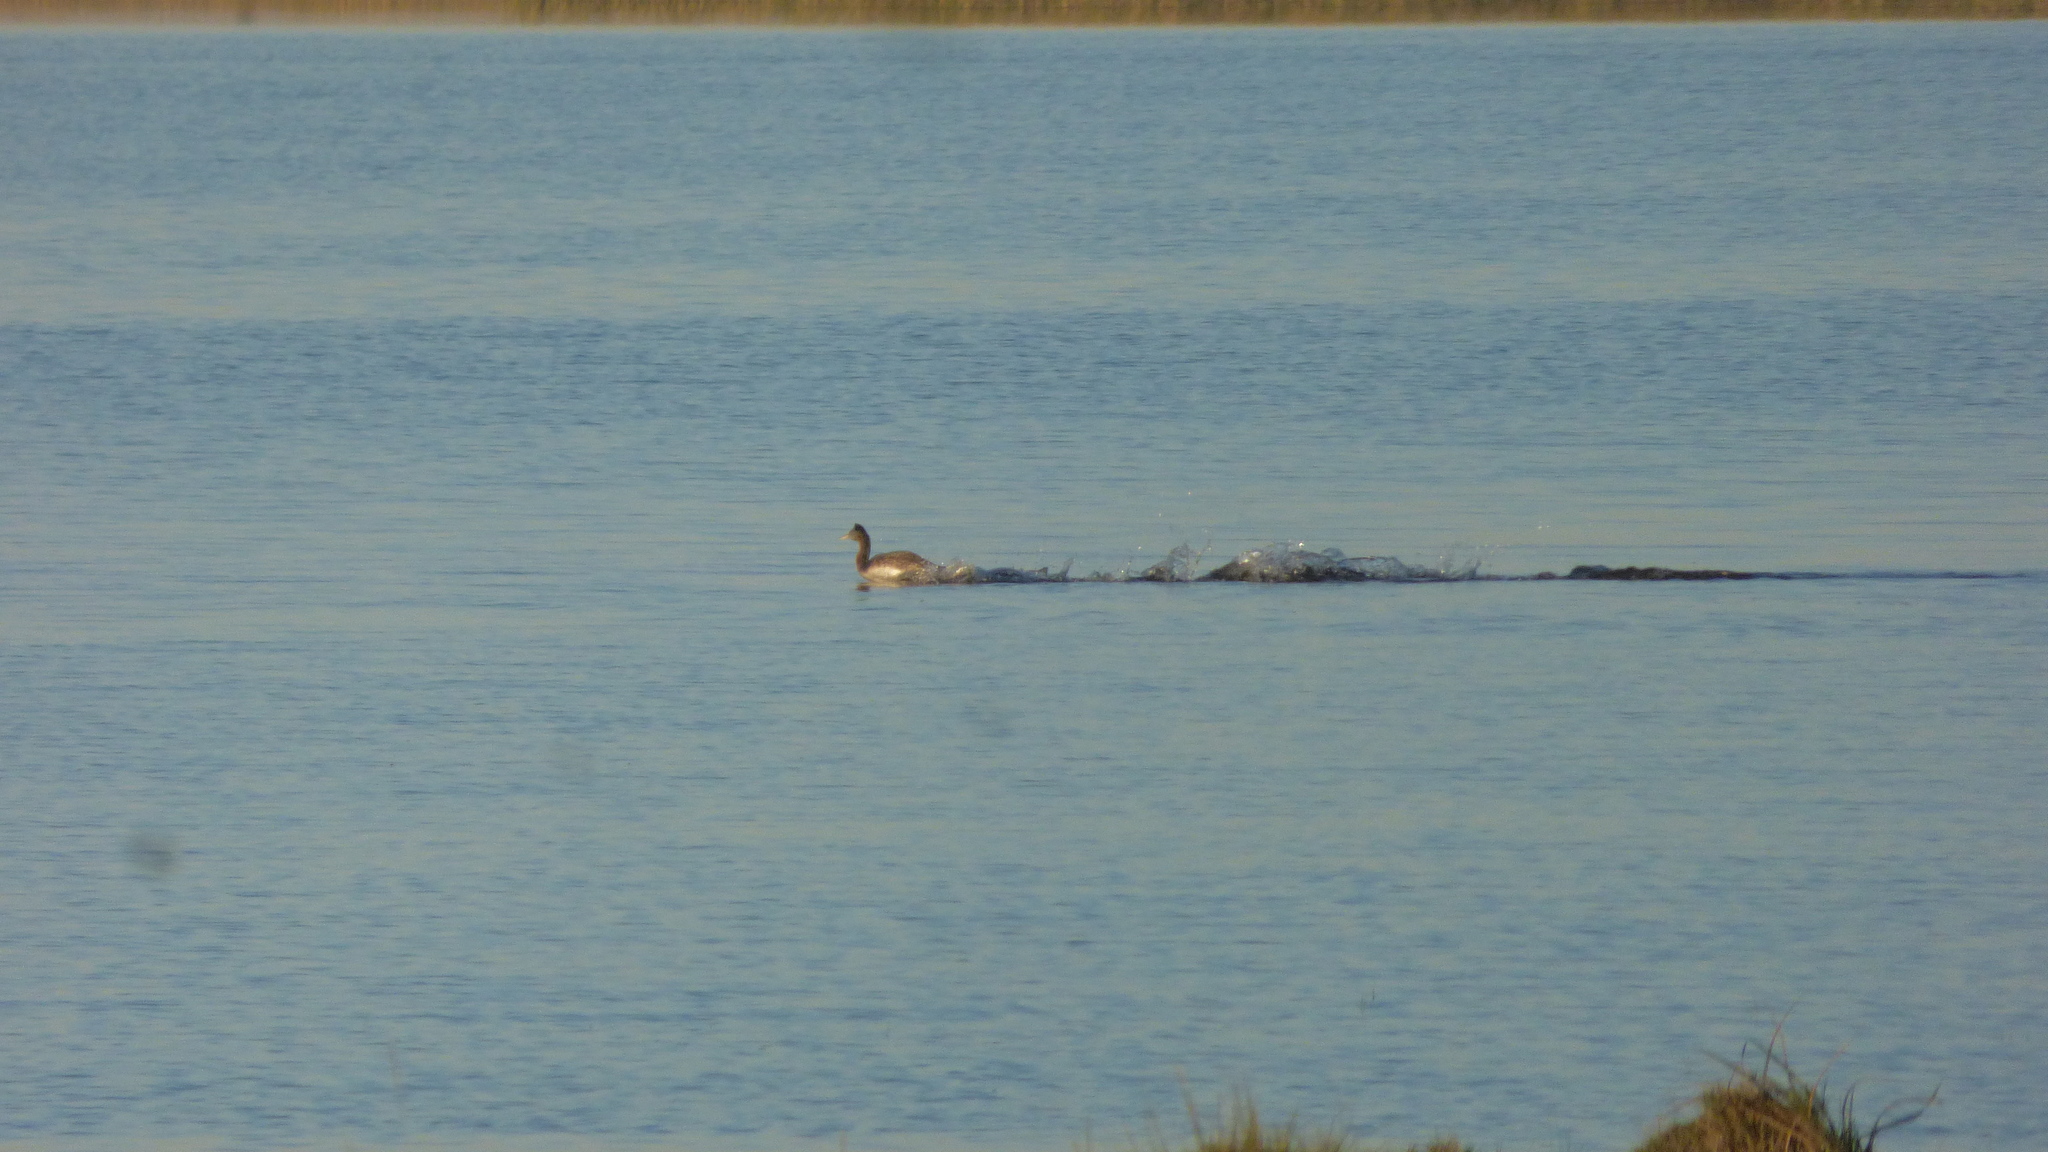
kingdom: Animalia
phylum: Chordata
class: Aves
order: Podicipediformes
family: Podicipedidae
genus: Podiceps
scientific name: Podiceps major
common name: Great grebe
